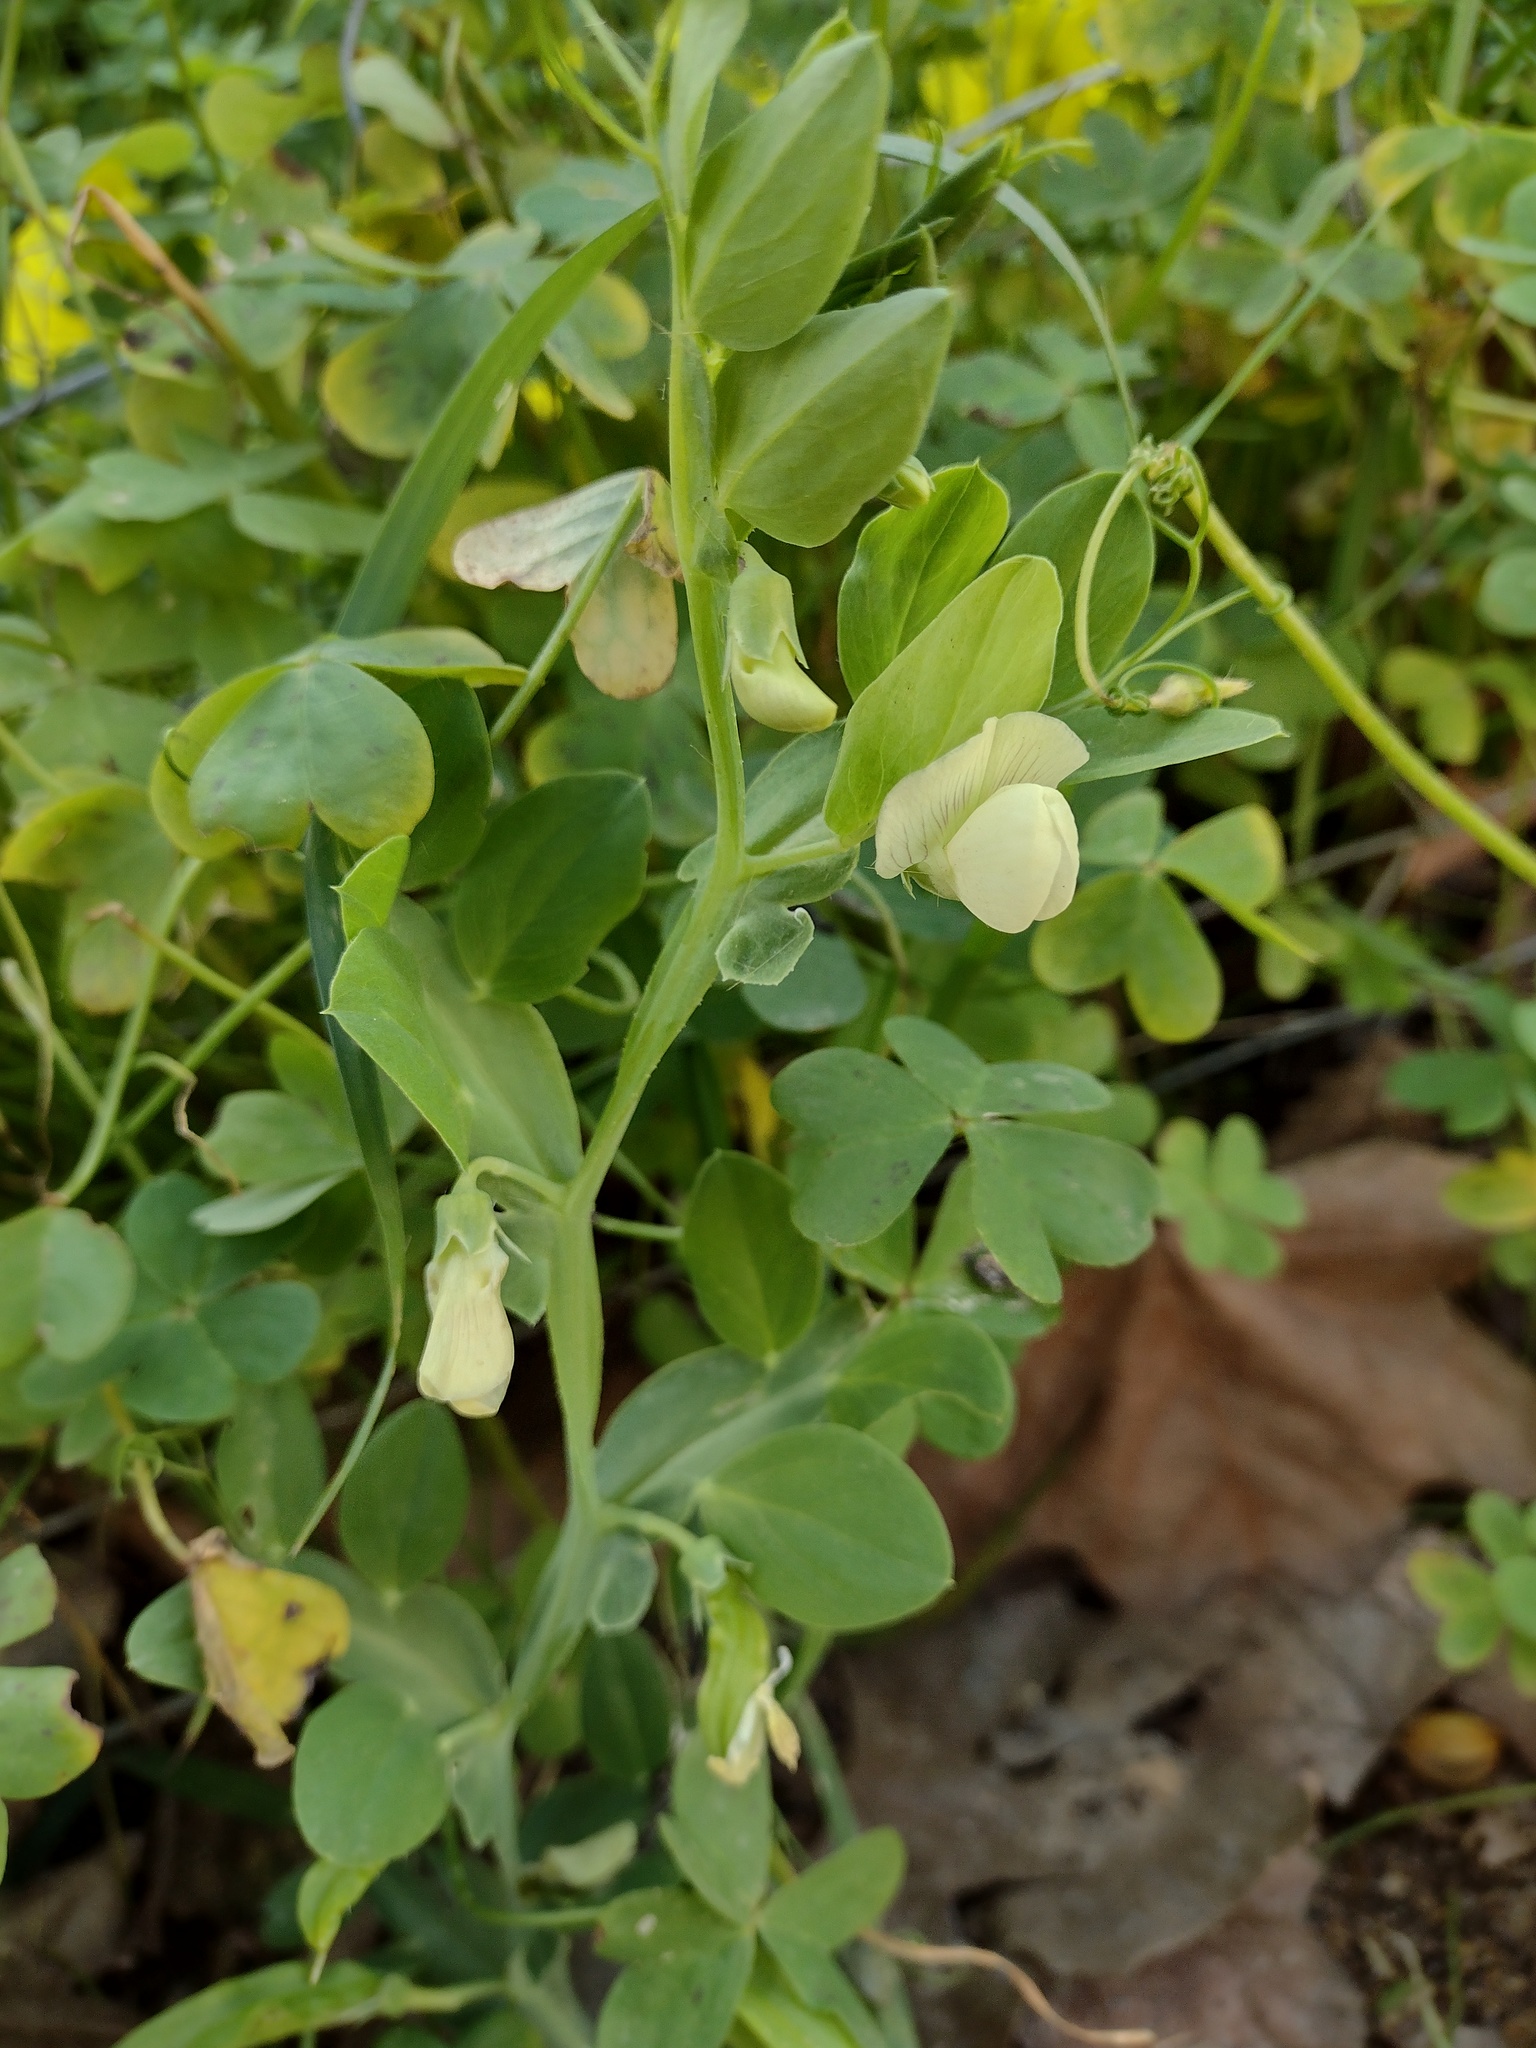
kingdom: Plantae
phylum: Tracheophyta
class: Magnoliopsida
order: Fabales
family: Fabaceae
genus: Lathyrus
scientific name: Lathyrus ochrus
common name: Winged vetchling
